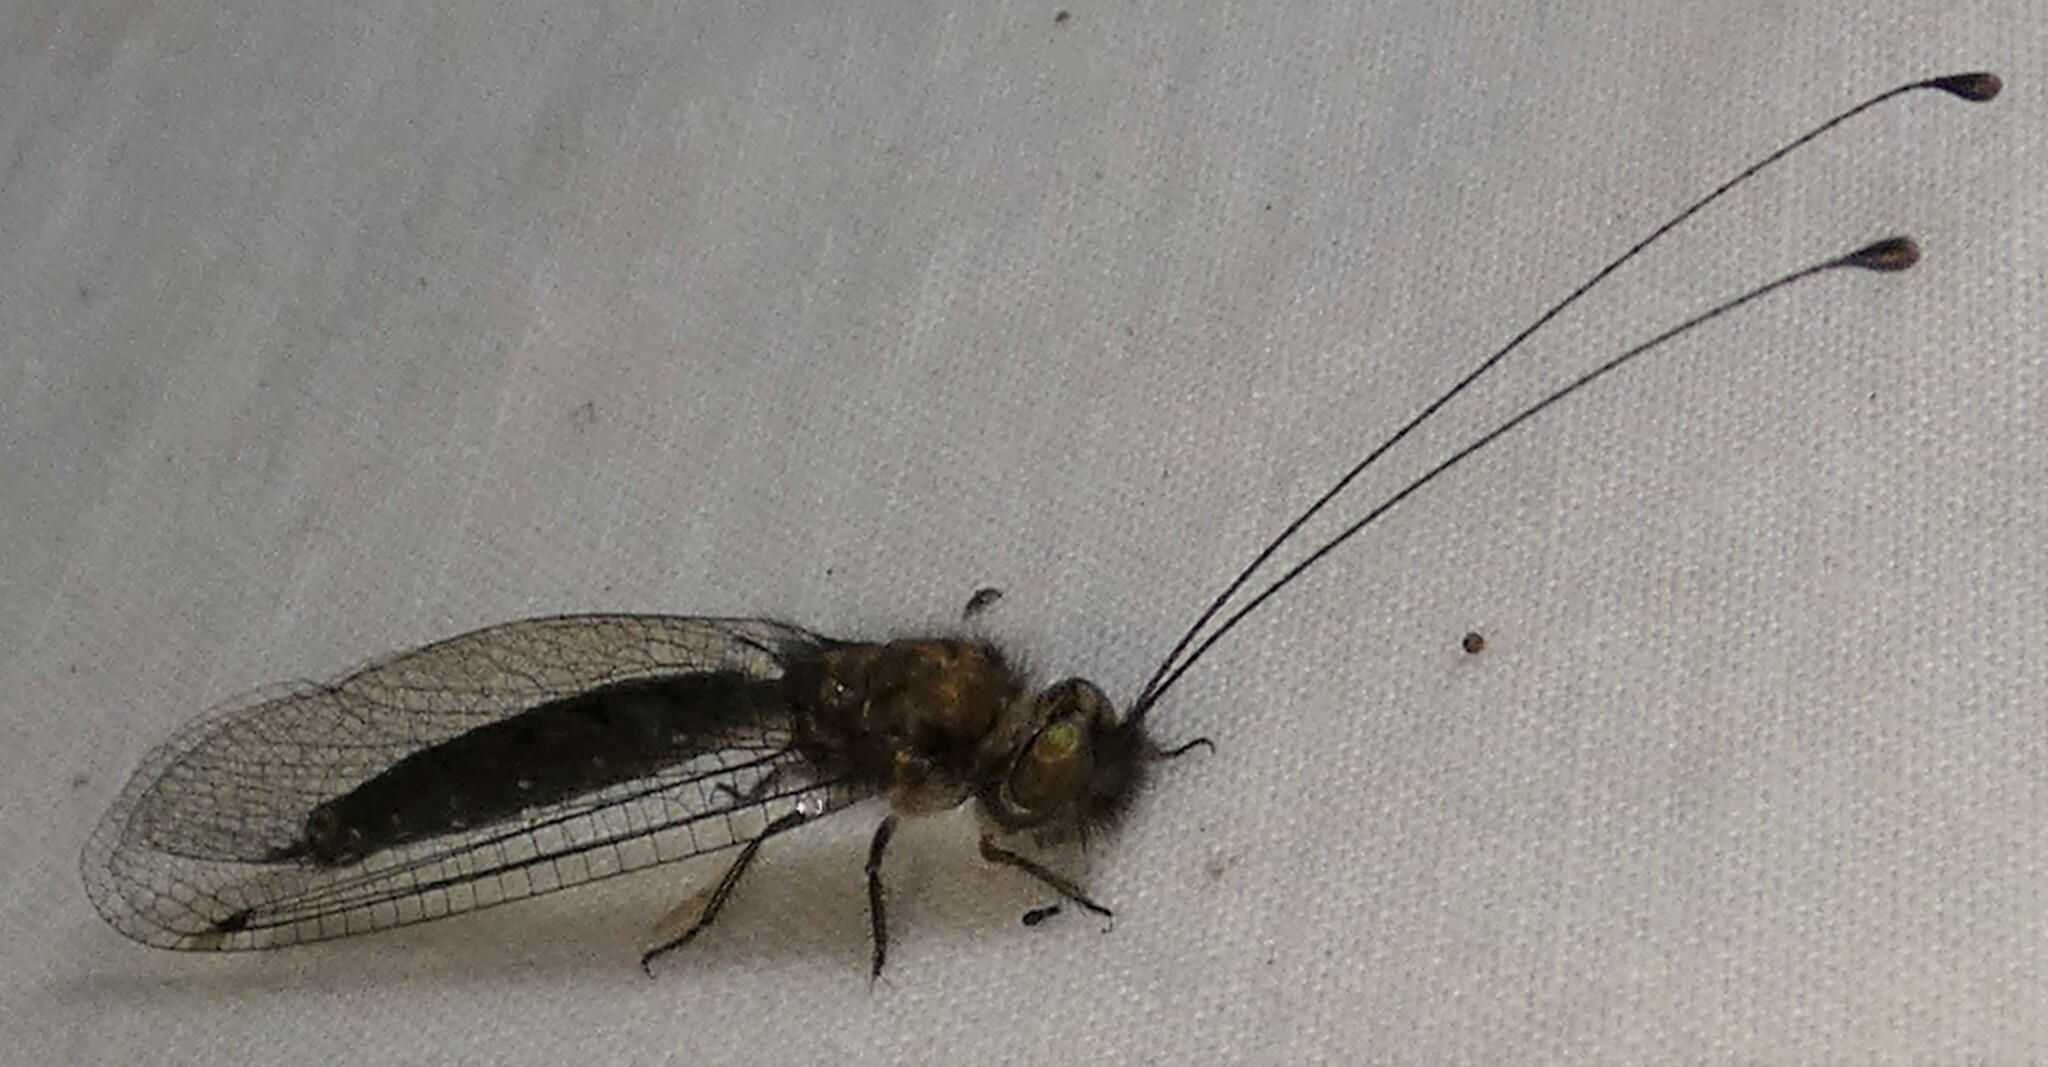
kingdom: Animalia
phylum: Arthropoda
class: Insecta
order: Neuroptera
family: Ascalaphidae
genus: Ululodes
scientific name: Ululodes floridanus
